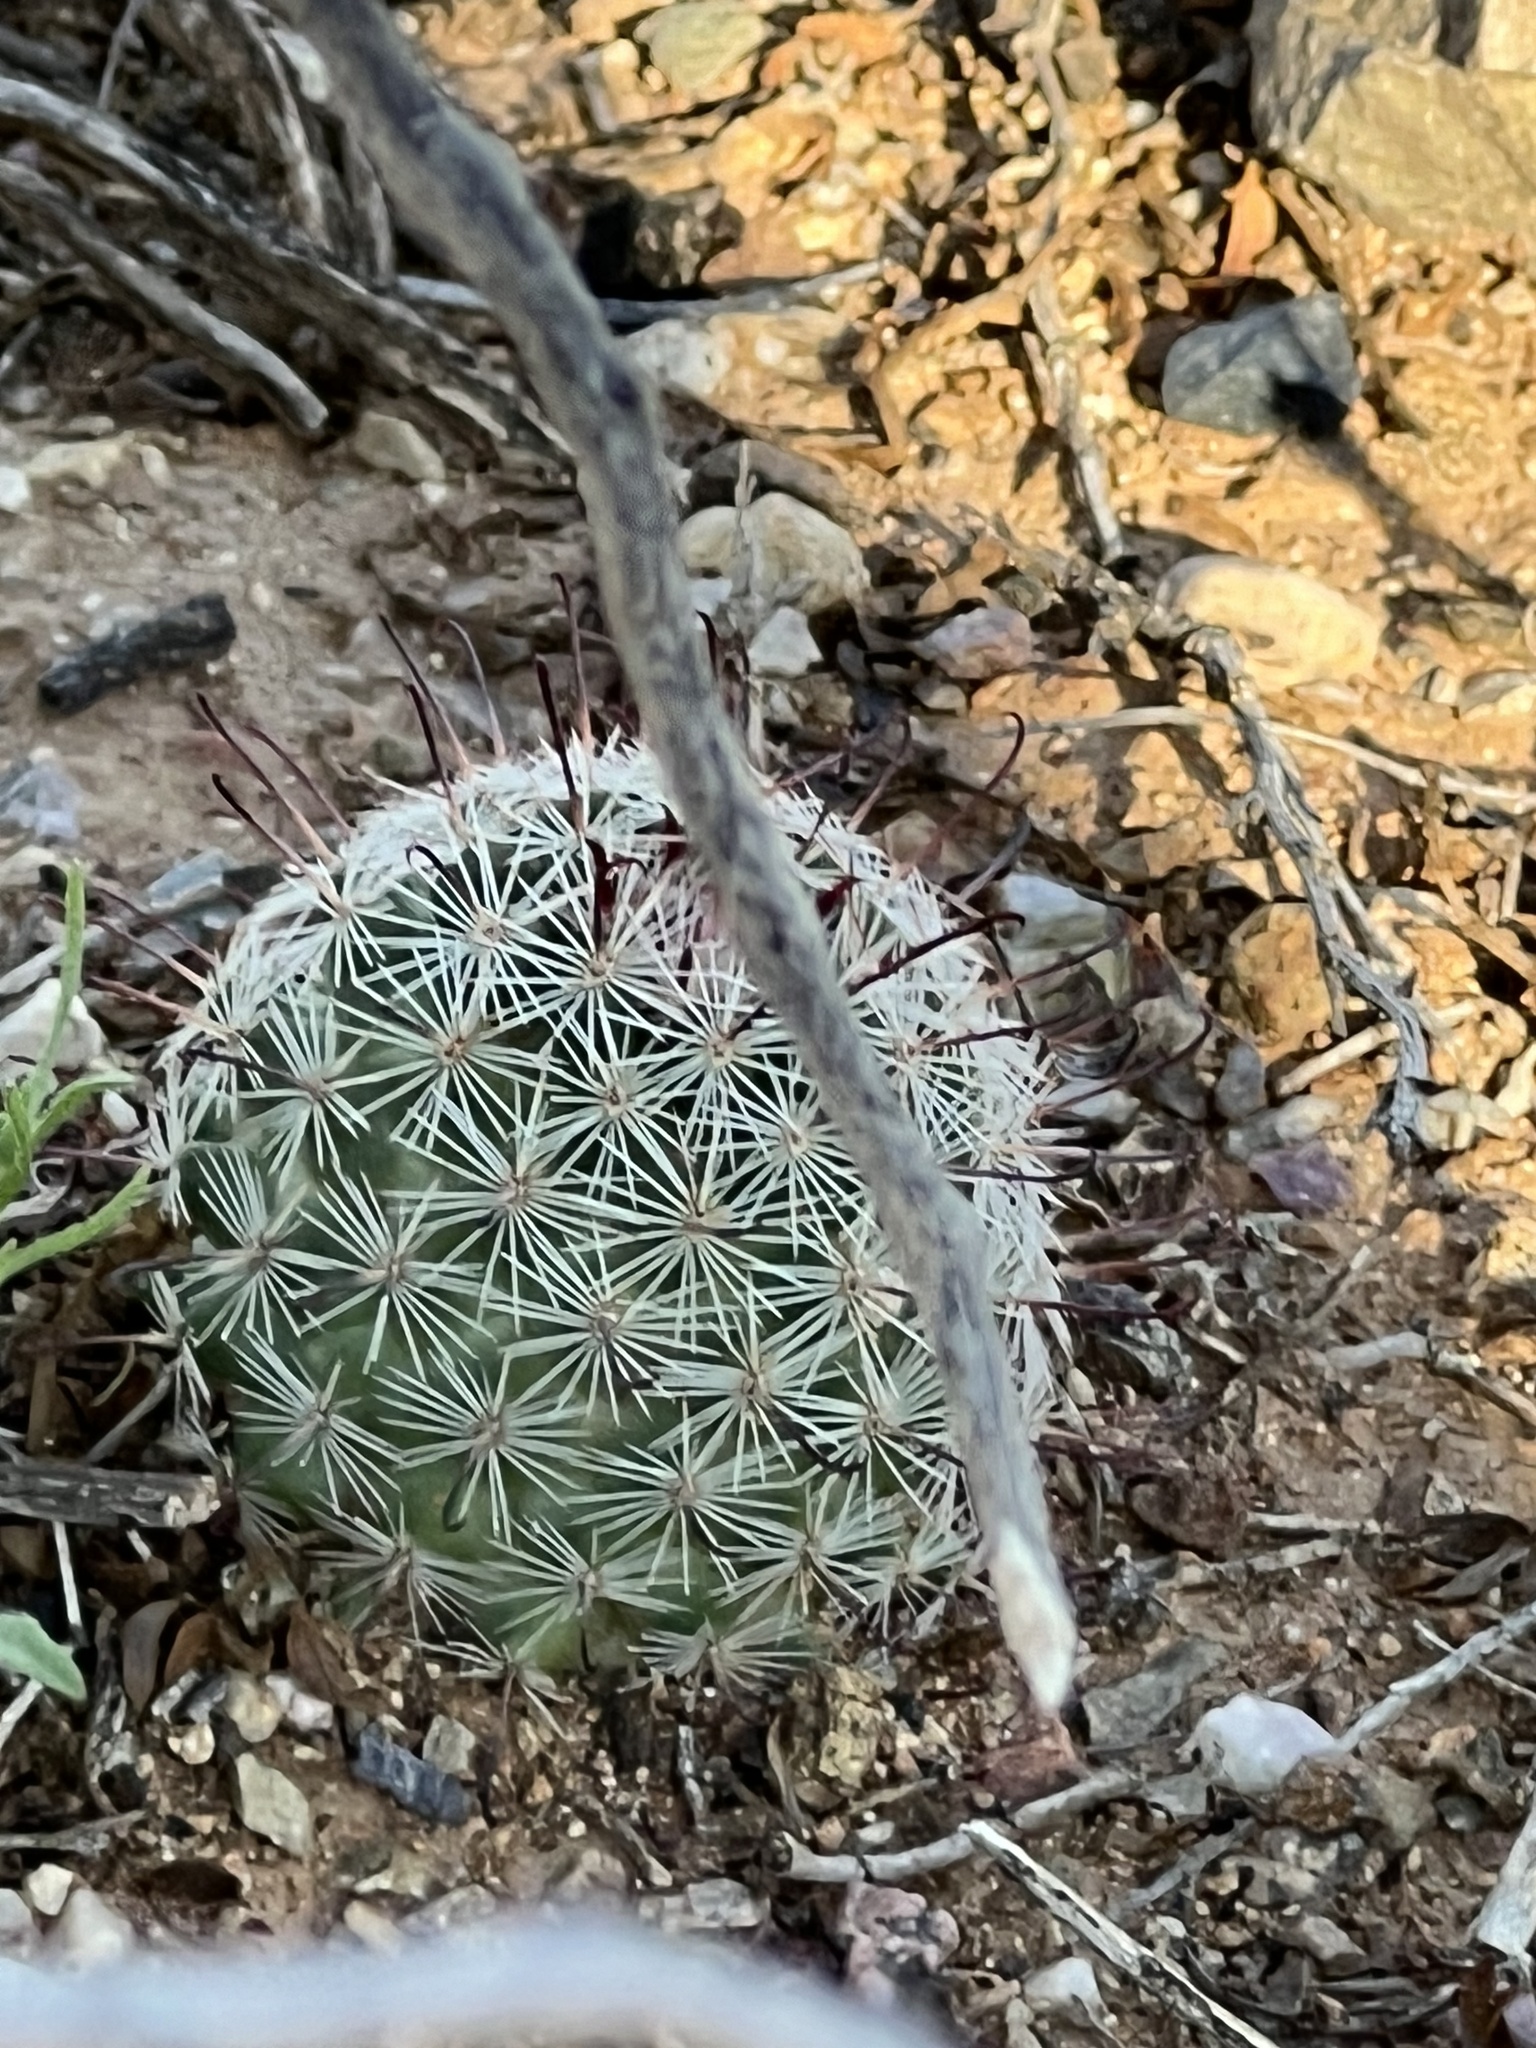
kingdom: Plantae
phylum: Tracheophyta
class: Magnoliopsida
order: Caryophyllales
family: Cactaceae
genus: Cochemiea
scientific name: Cochemiea grahamii
